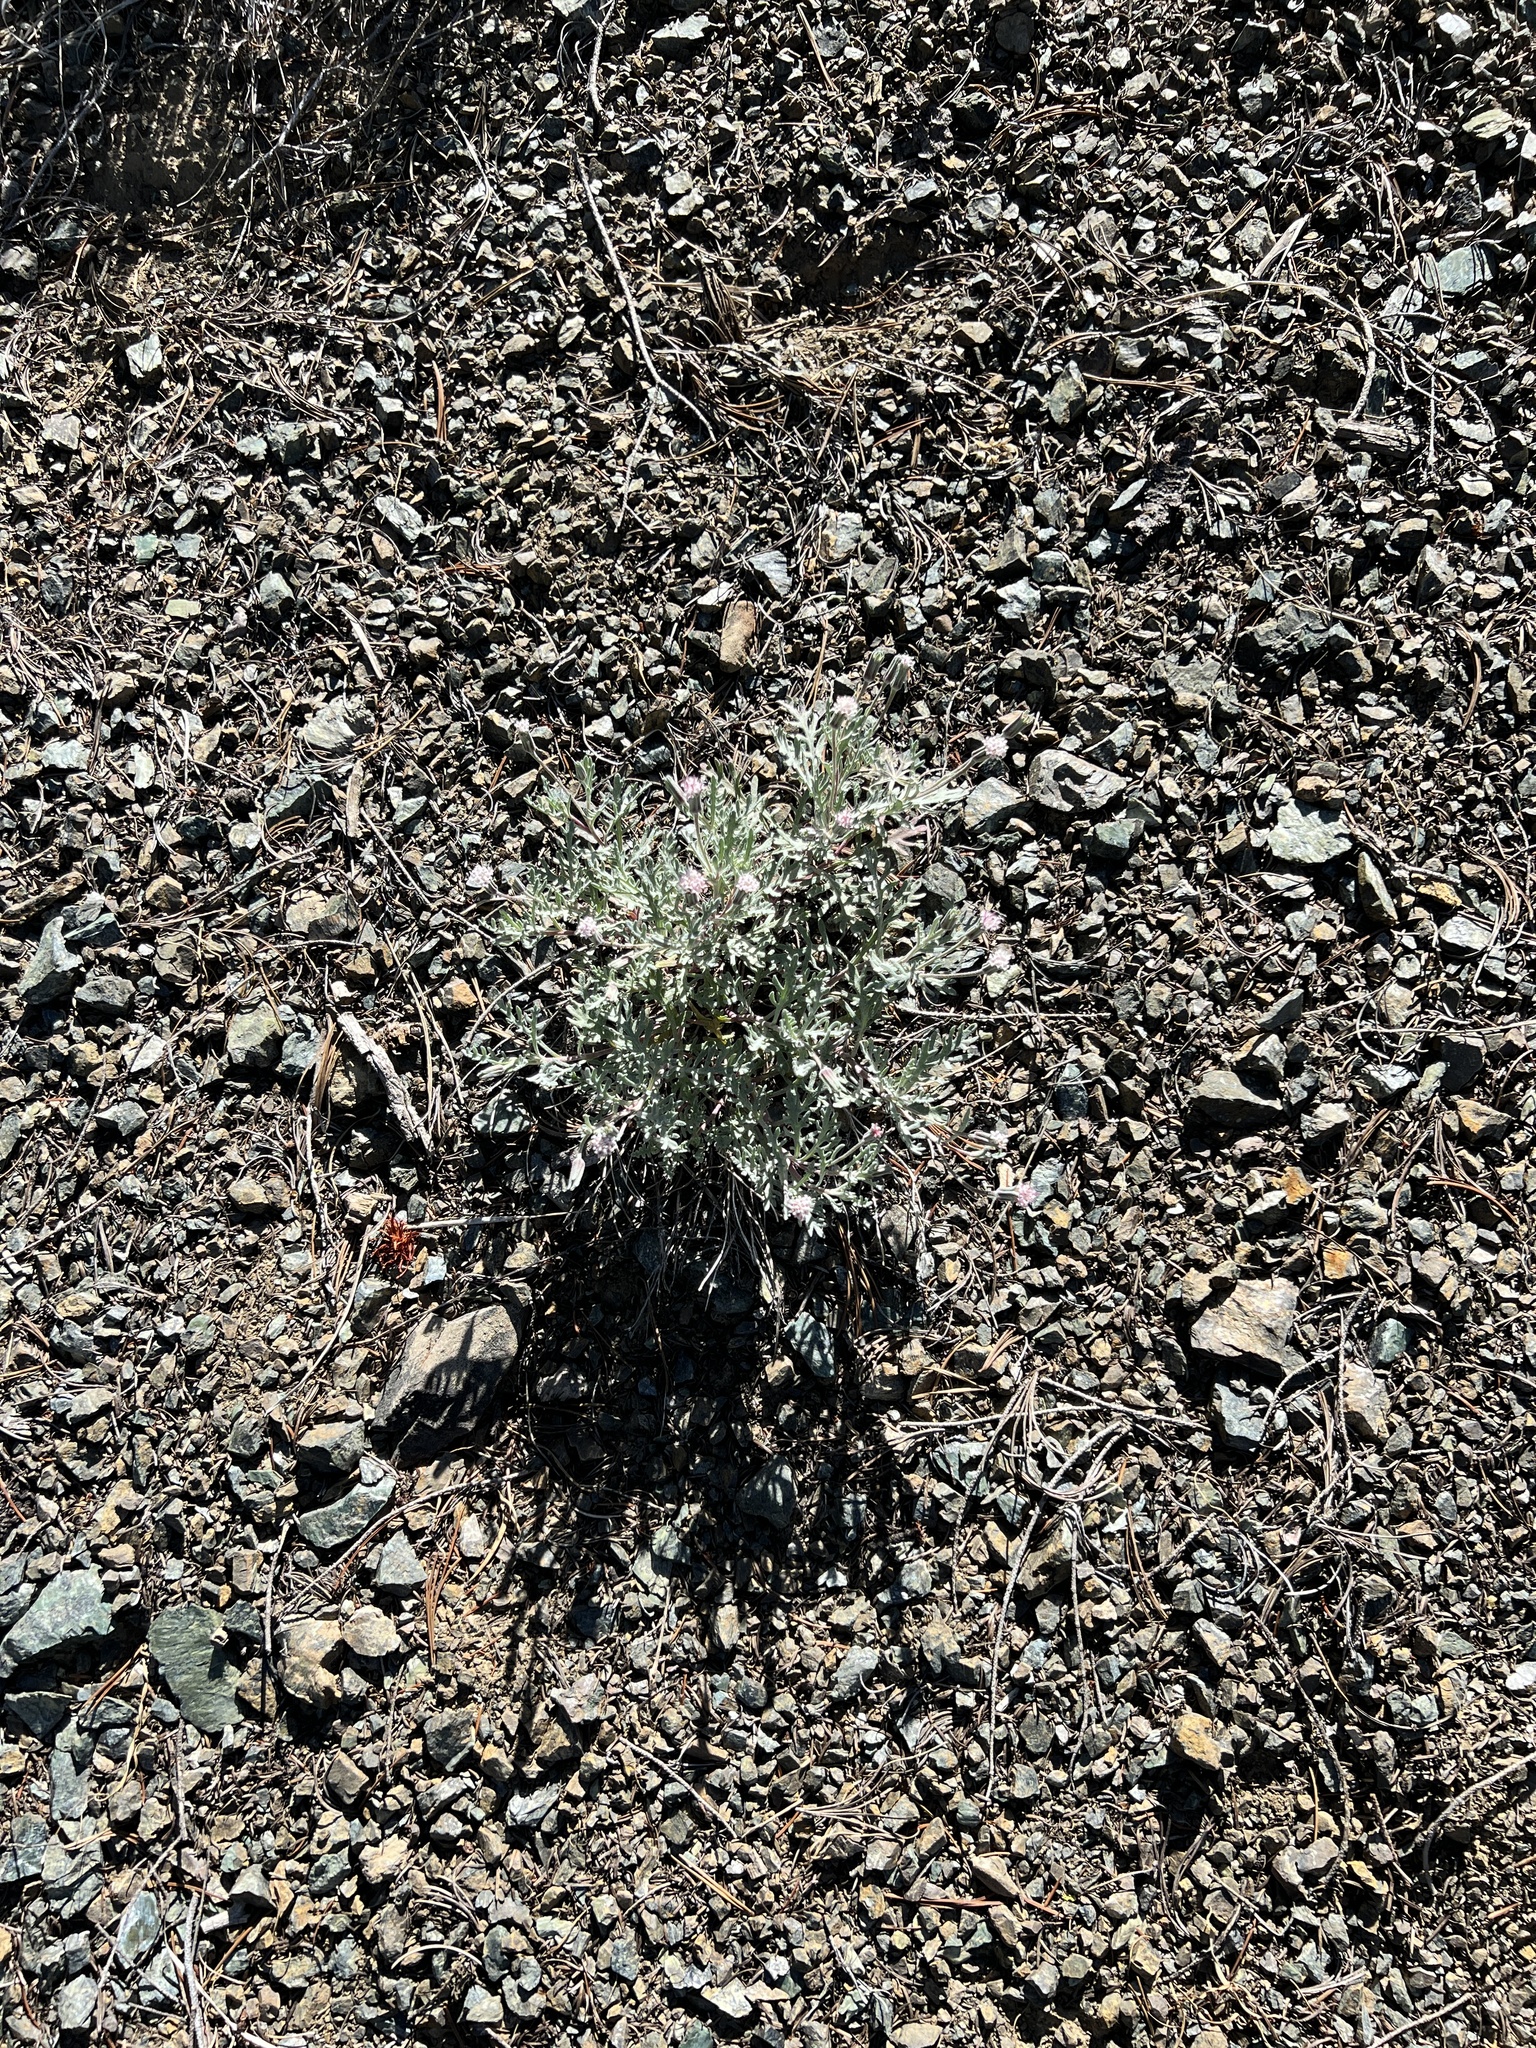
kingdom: Plantae
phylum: Tracheophyta
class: Magnoliopsida
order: Asterales
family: Asteraceae
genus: Chaenactis
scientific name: Chaenactis thompsonii
